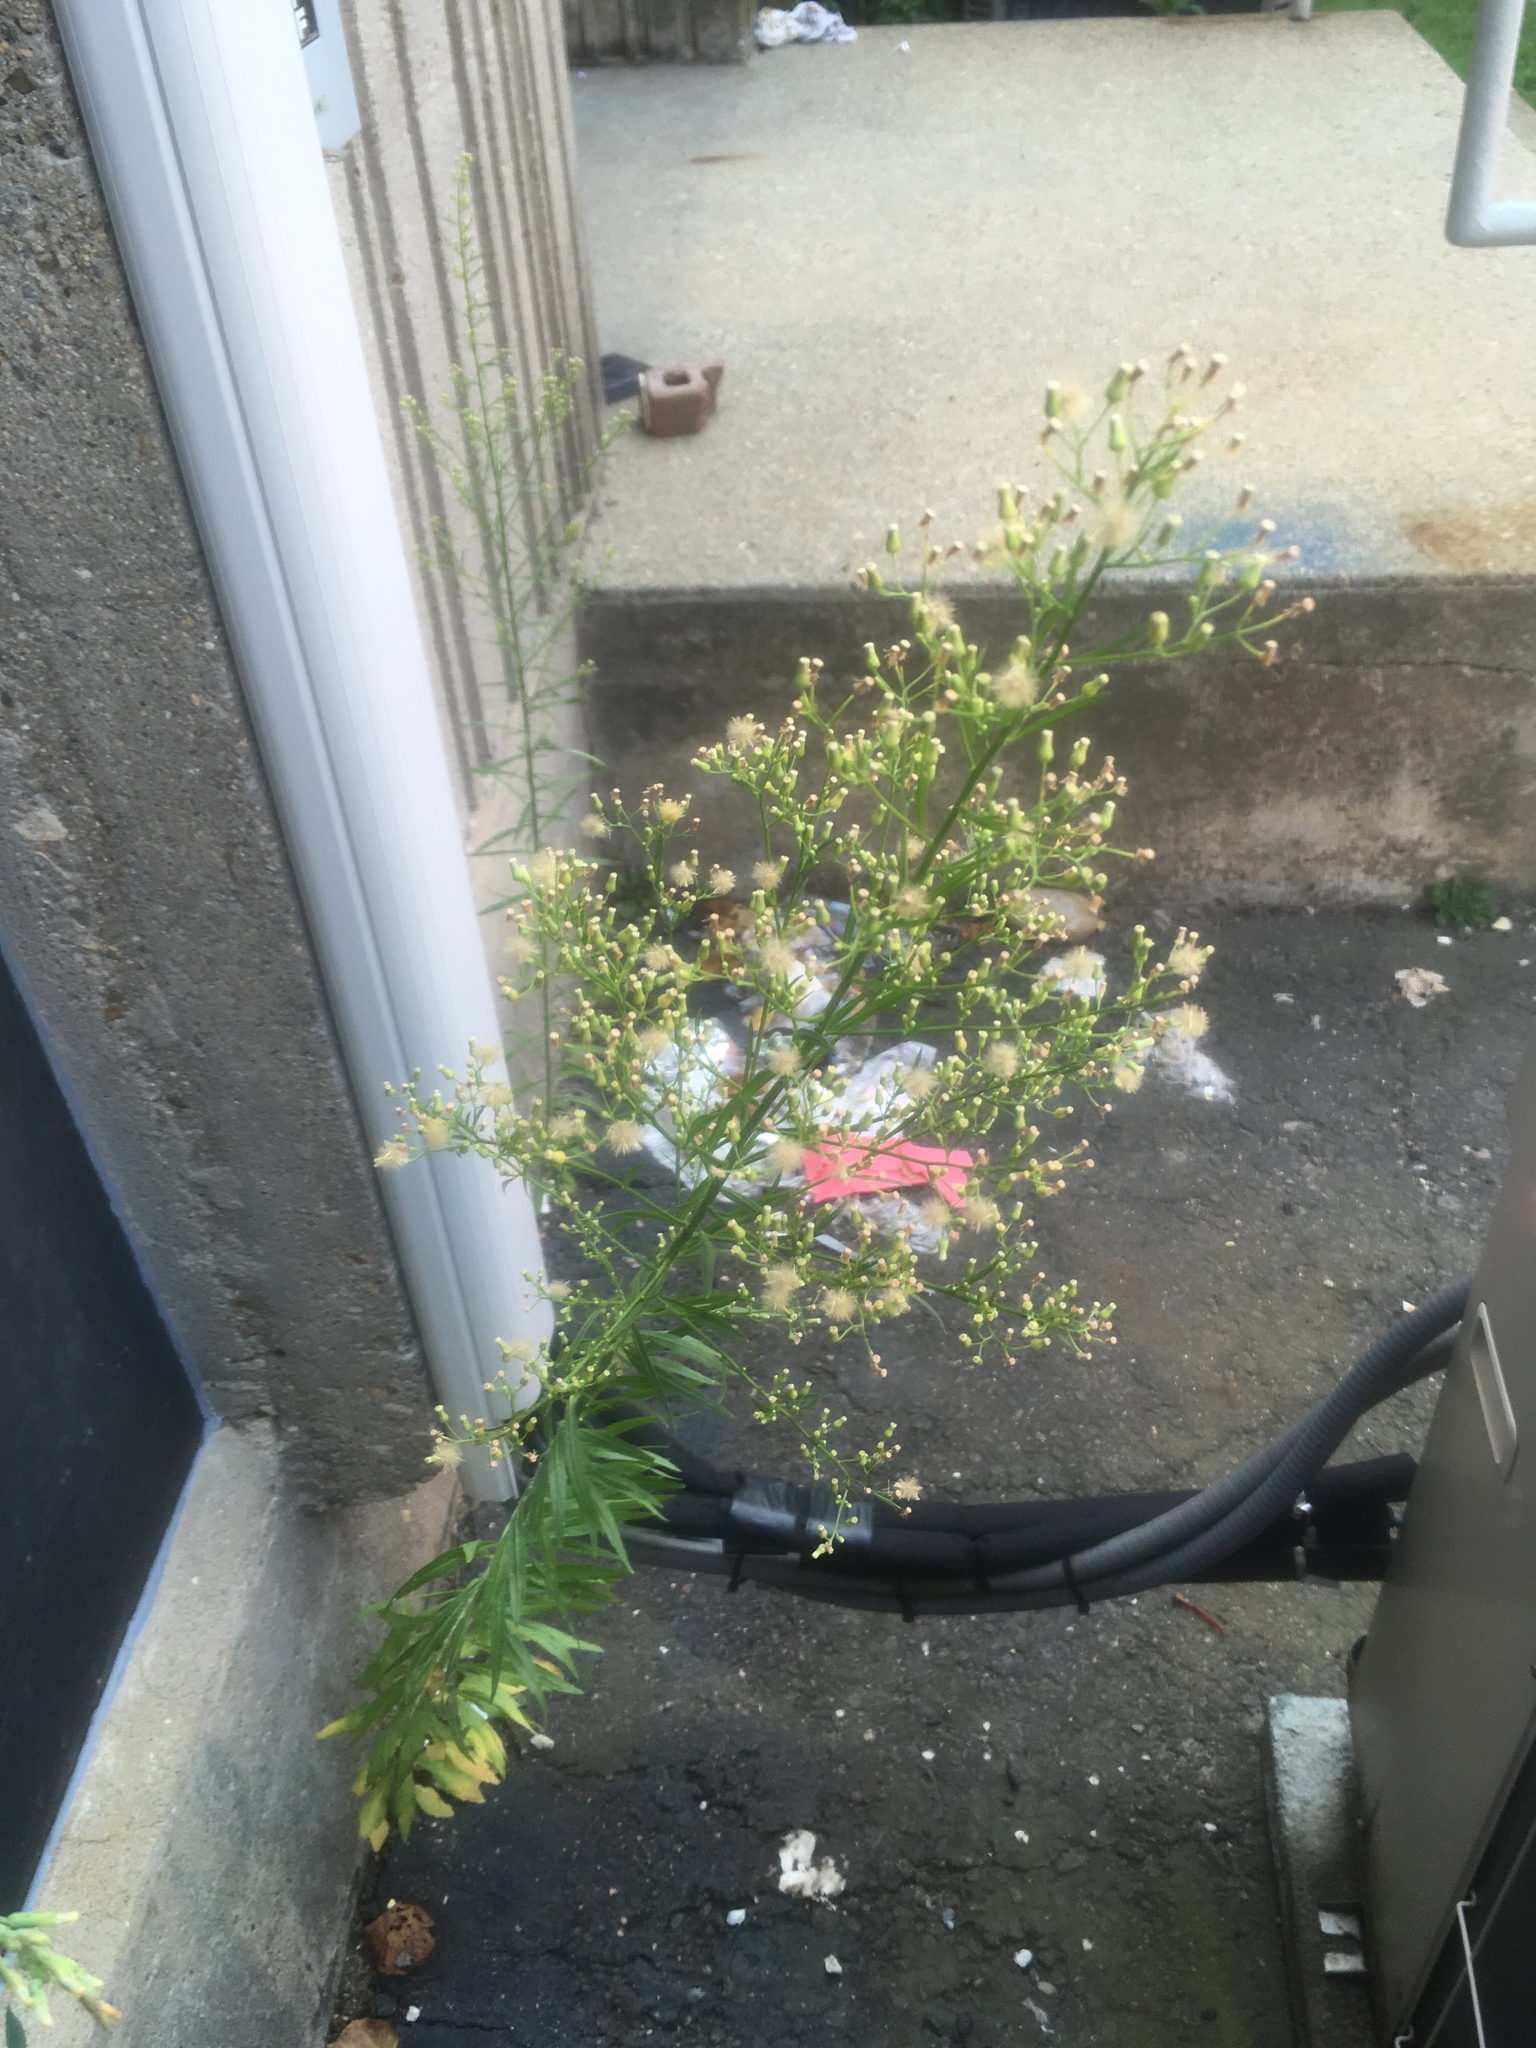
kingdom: Plantae
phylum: Tracheophyta
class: Magnoliopsida
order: Asterales
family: Asteraceae
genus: Erigeron
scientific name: Erigeron canadensis
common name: Canadian fleabane
